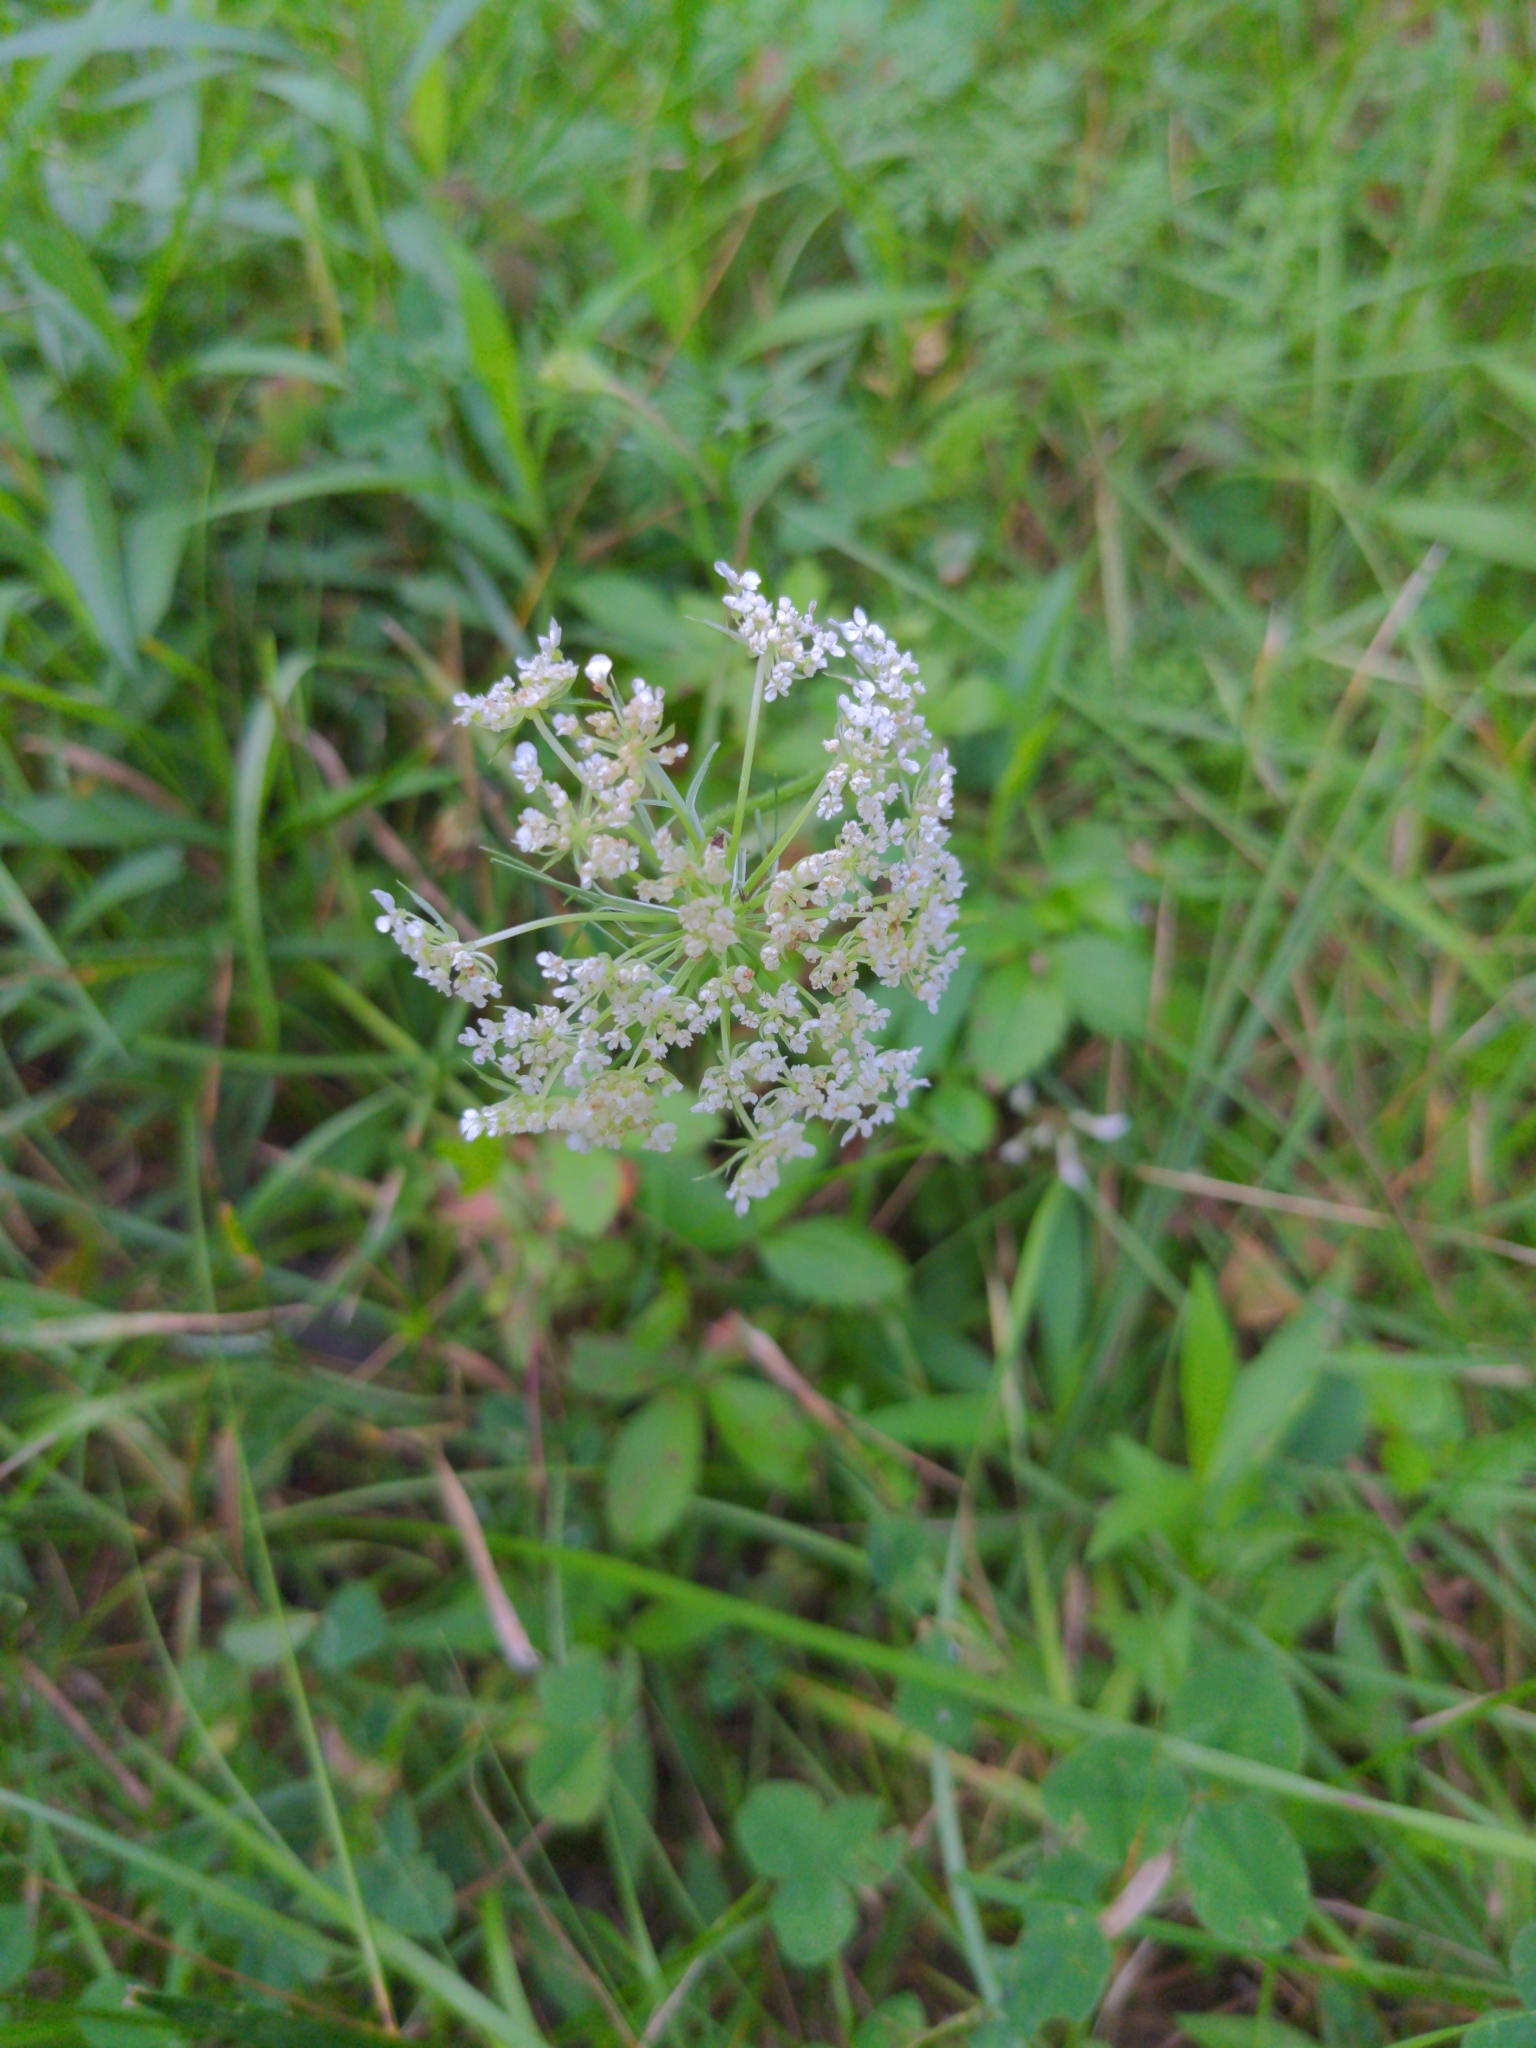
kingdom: Plantae
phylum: Tracheophyta
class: Magnoliopsida
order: Apiales
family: Apiaceae
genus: Daucus
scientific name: Daucus carota
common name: Wild carrot
